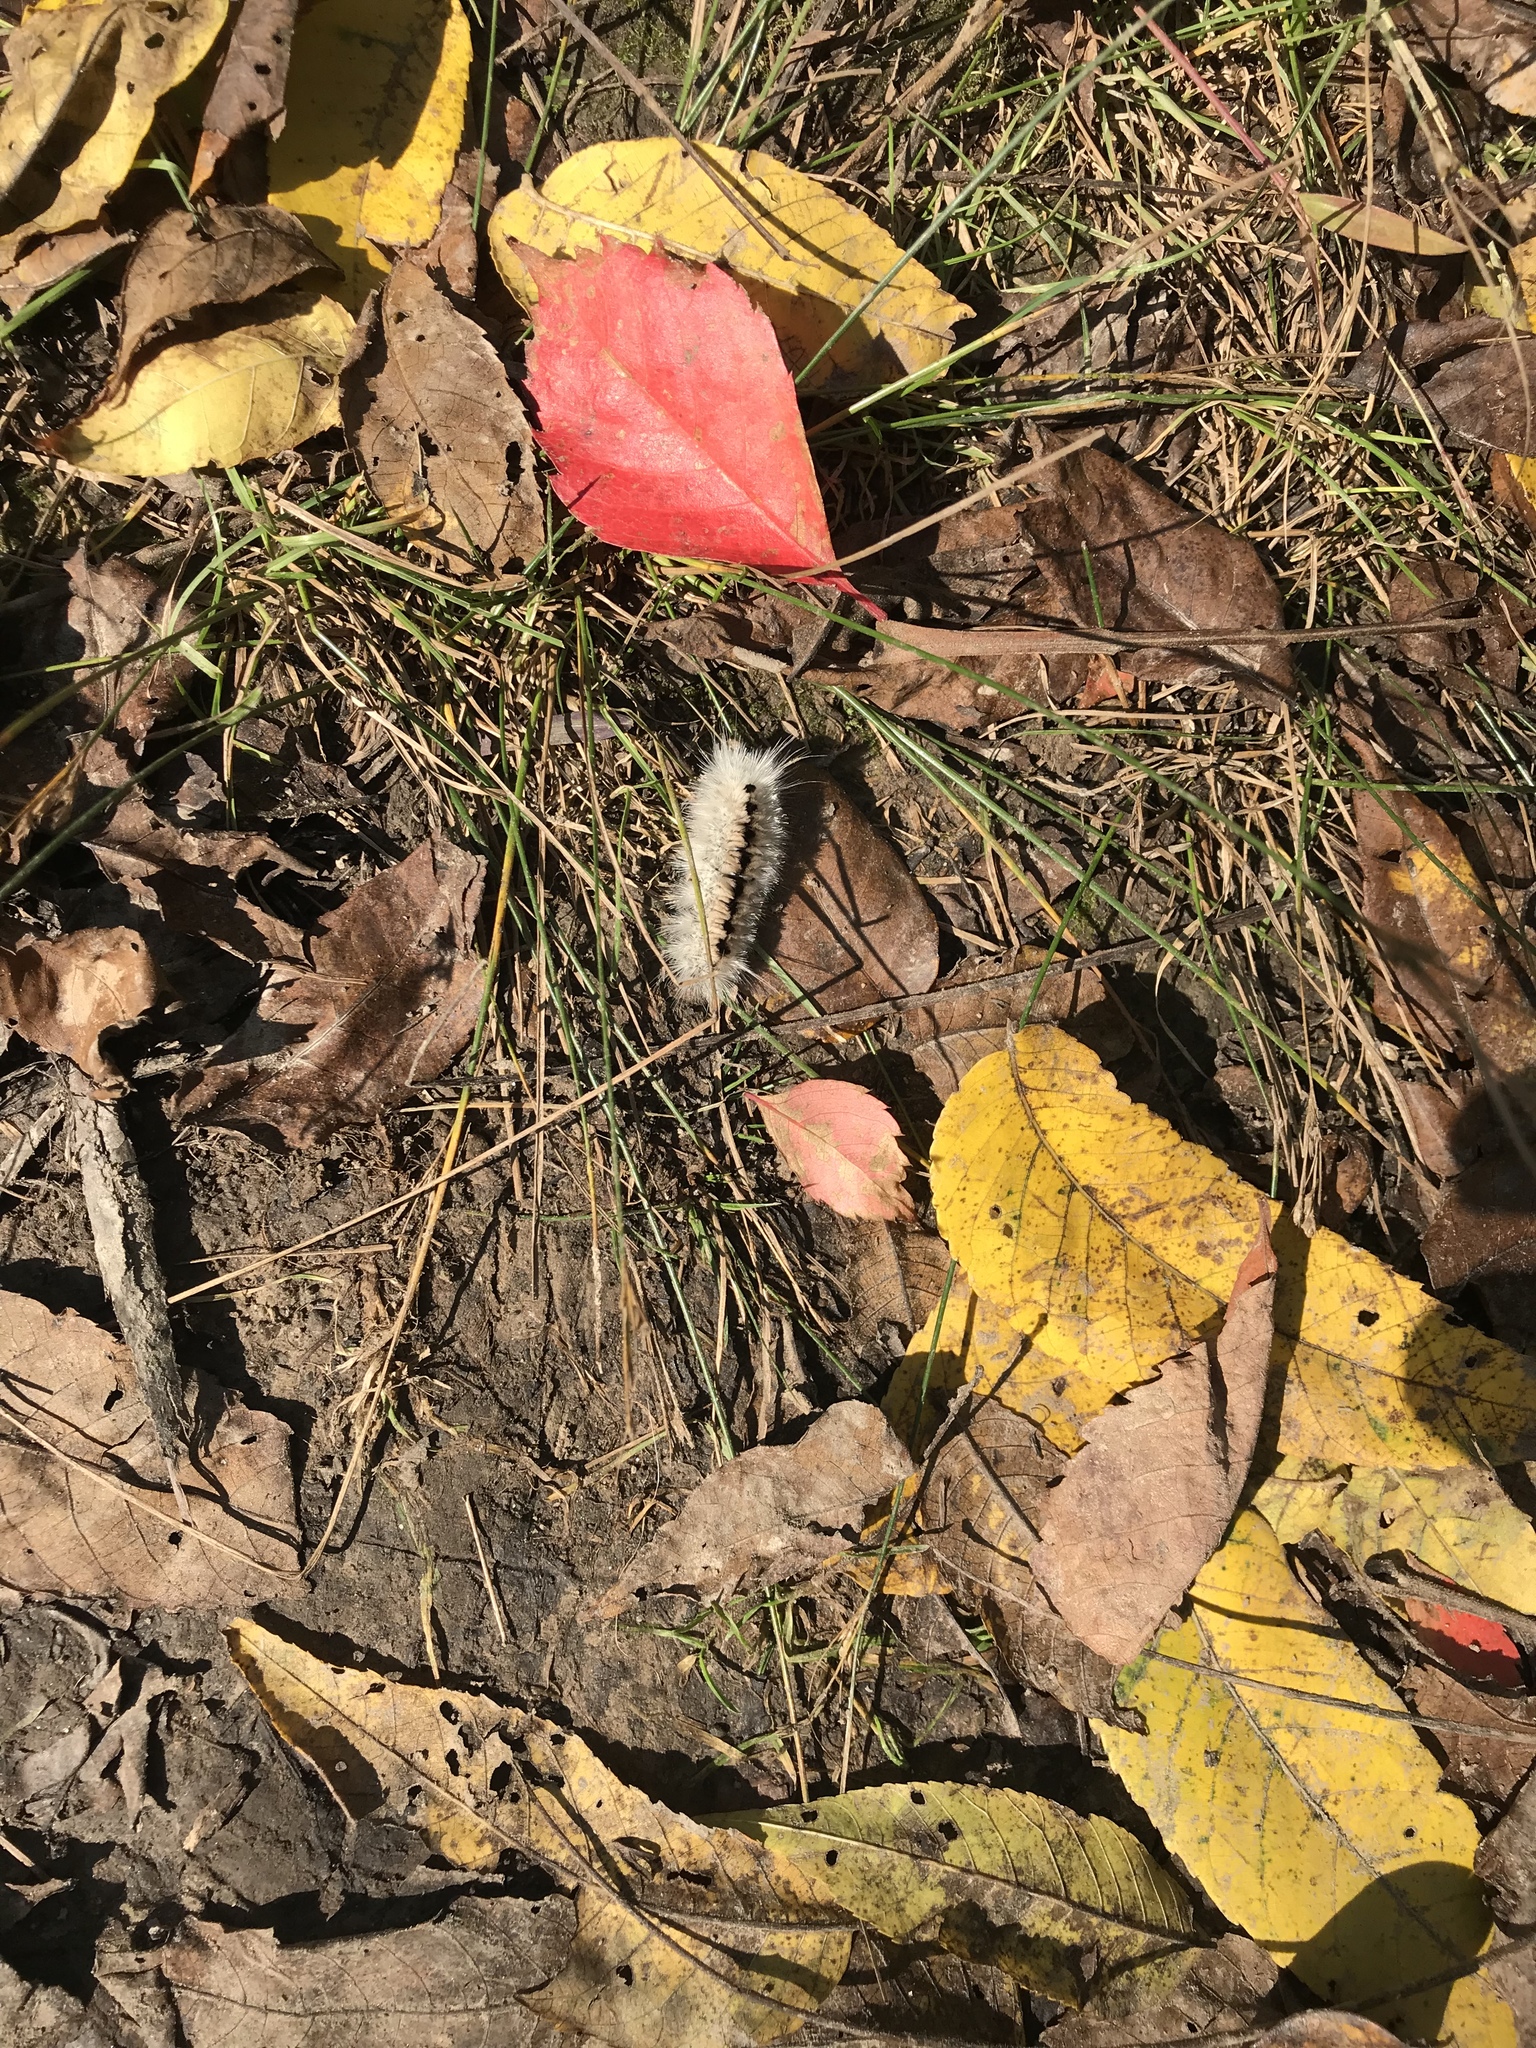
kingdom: Animalia
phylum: Arthropoda
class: Insecta
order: Lepidoptera
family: Erebidae
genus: Lophocampa
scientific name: Lophocampa caryae
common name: Hickory tussock moth
